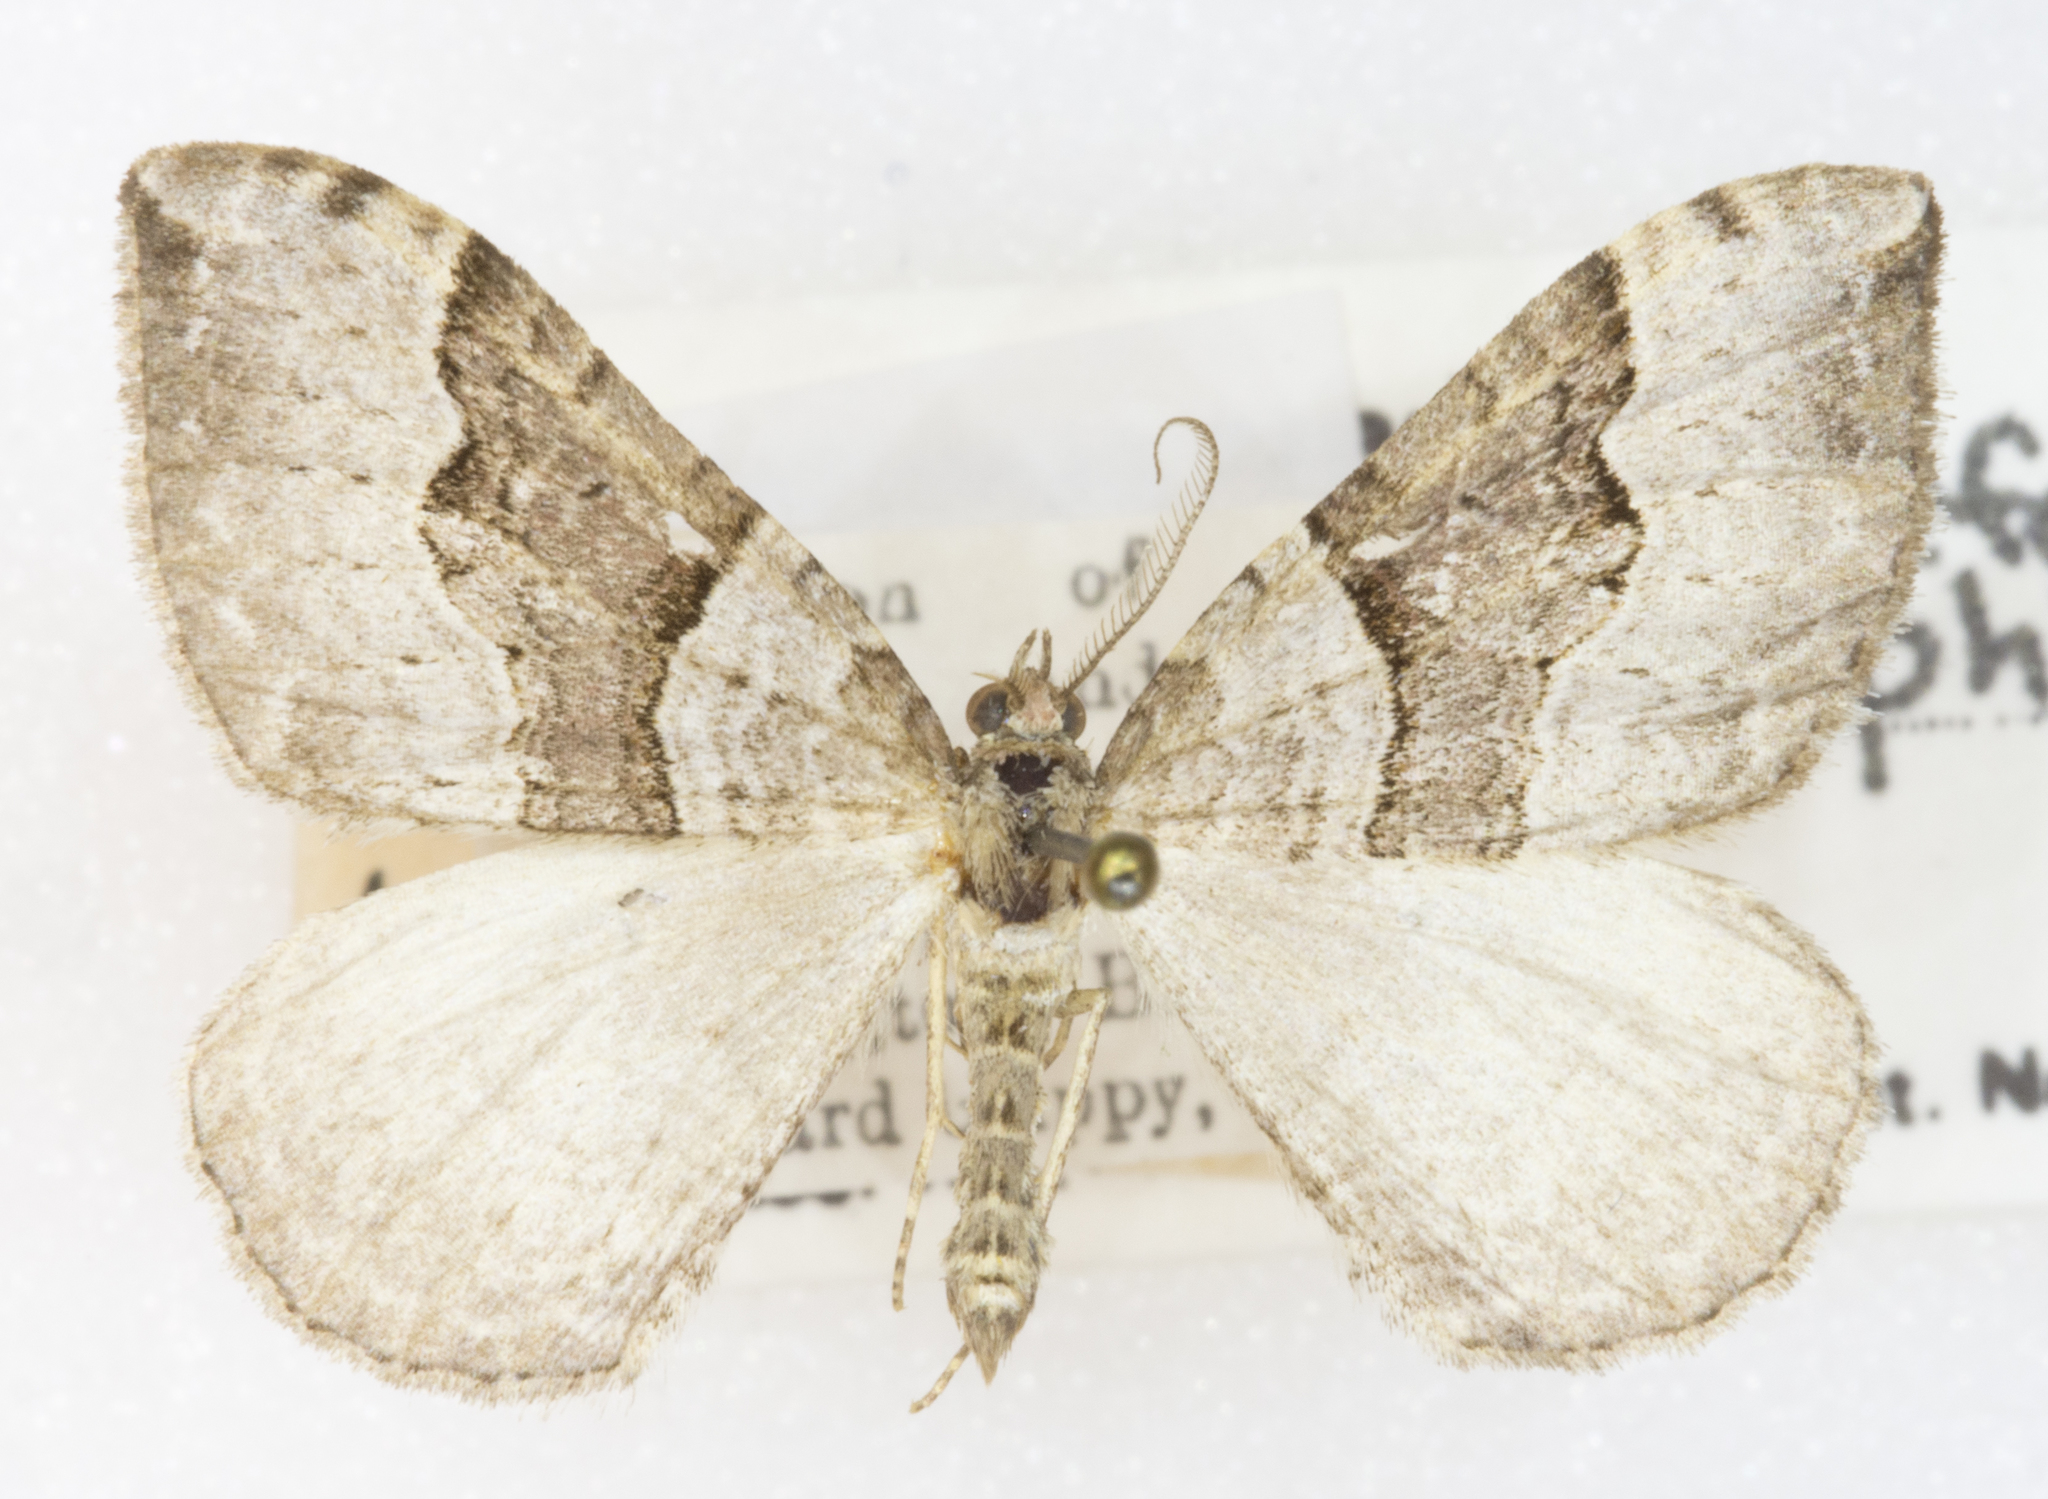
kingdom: Animalia
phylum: Arthropoda
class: Insecta
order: Lepidoptera
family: Geometridae
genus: Xanthorhoe
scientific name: Xanthorhoe defensaria
